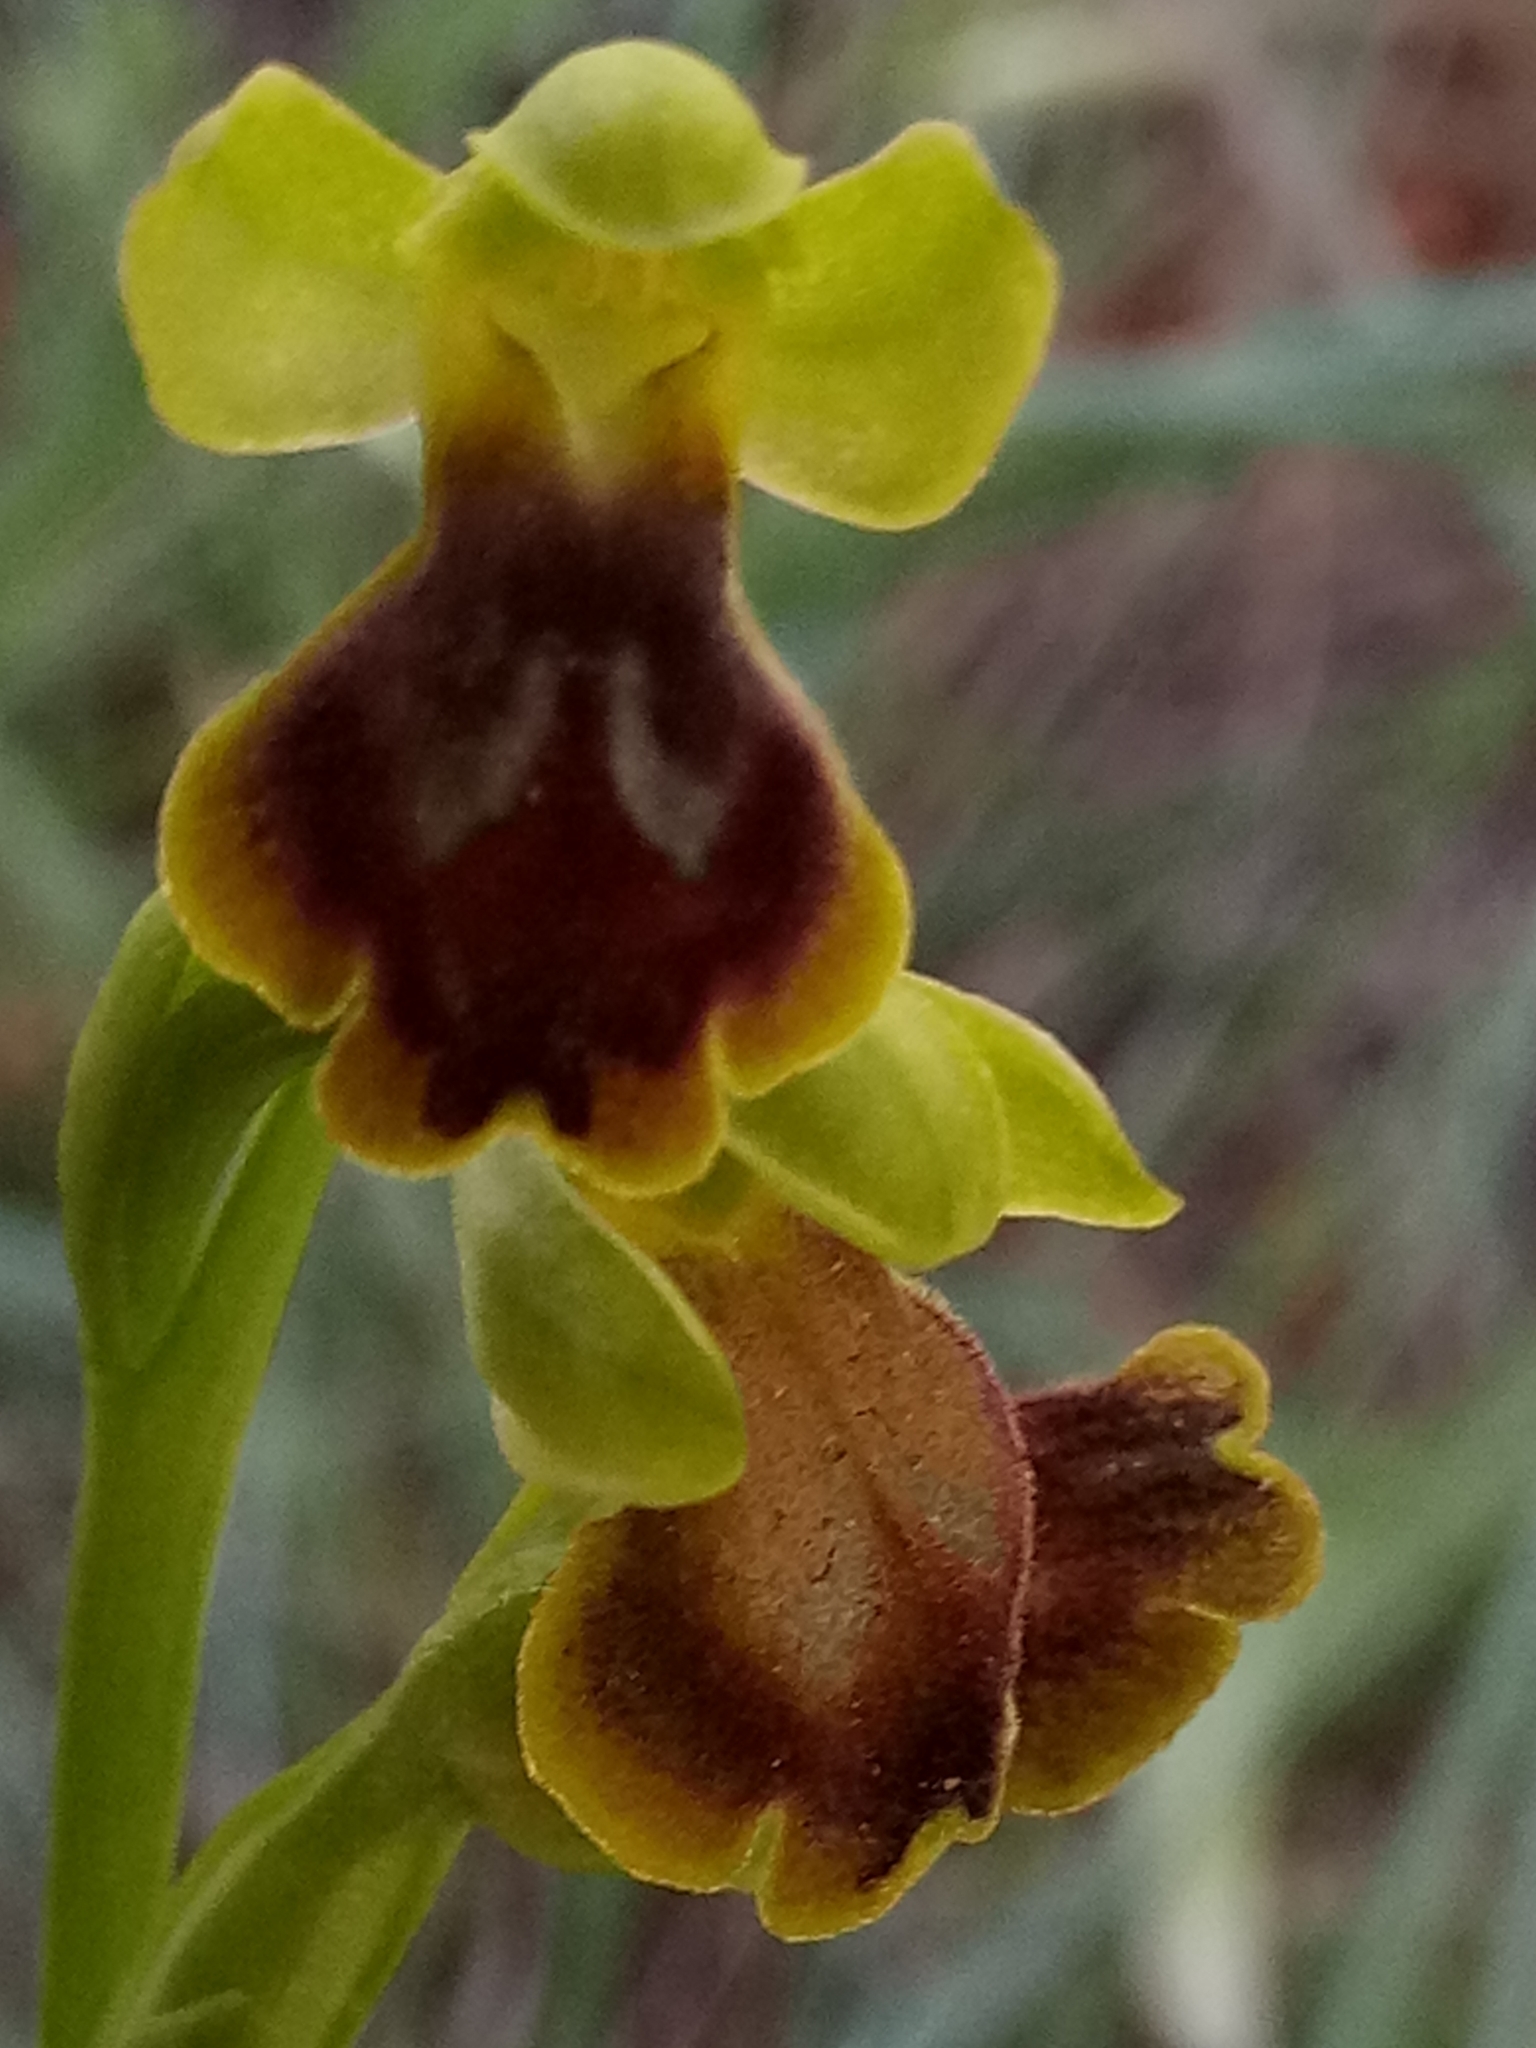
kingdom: Plantae
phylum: Tracheophyta
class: Liliopsida
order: Asparagales
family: Orchidaceae
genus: Ophrys
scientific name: Ophrys battandieri
